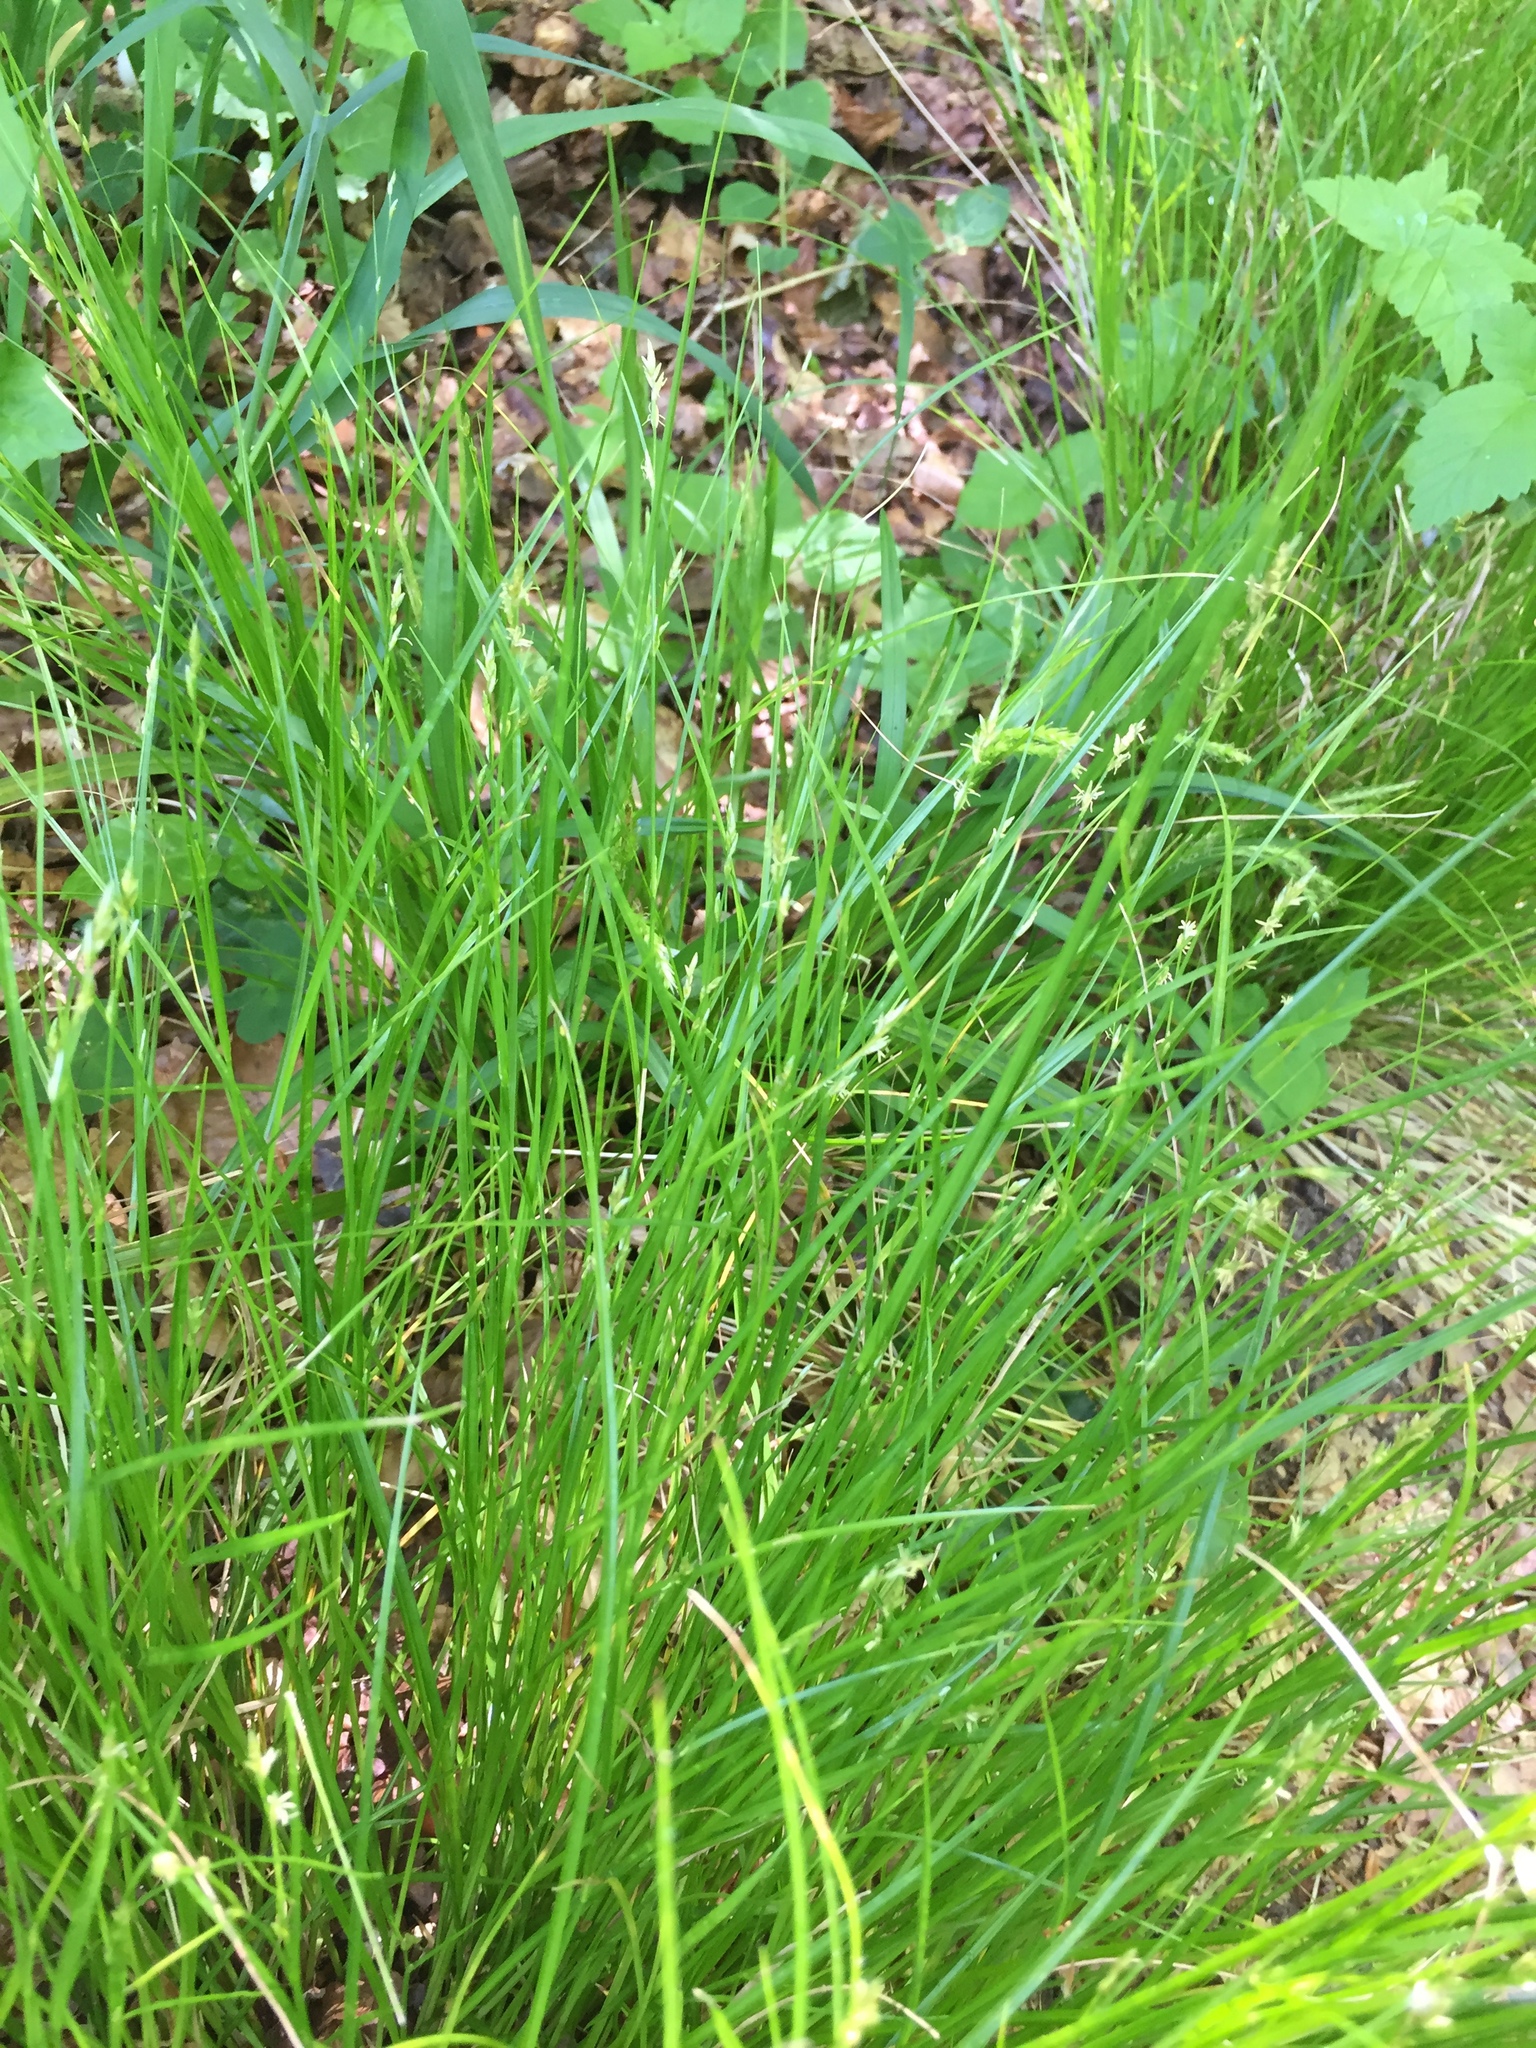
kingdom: Plantae
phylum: Tracheophyta
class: Liliopsida
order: Poales
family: Cyperaceae
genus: Carex
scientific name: Carex remota
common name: Remote sedge
